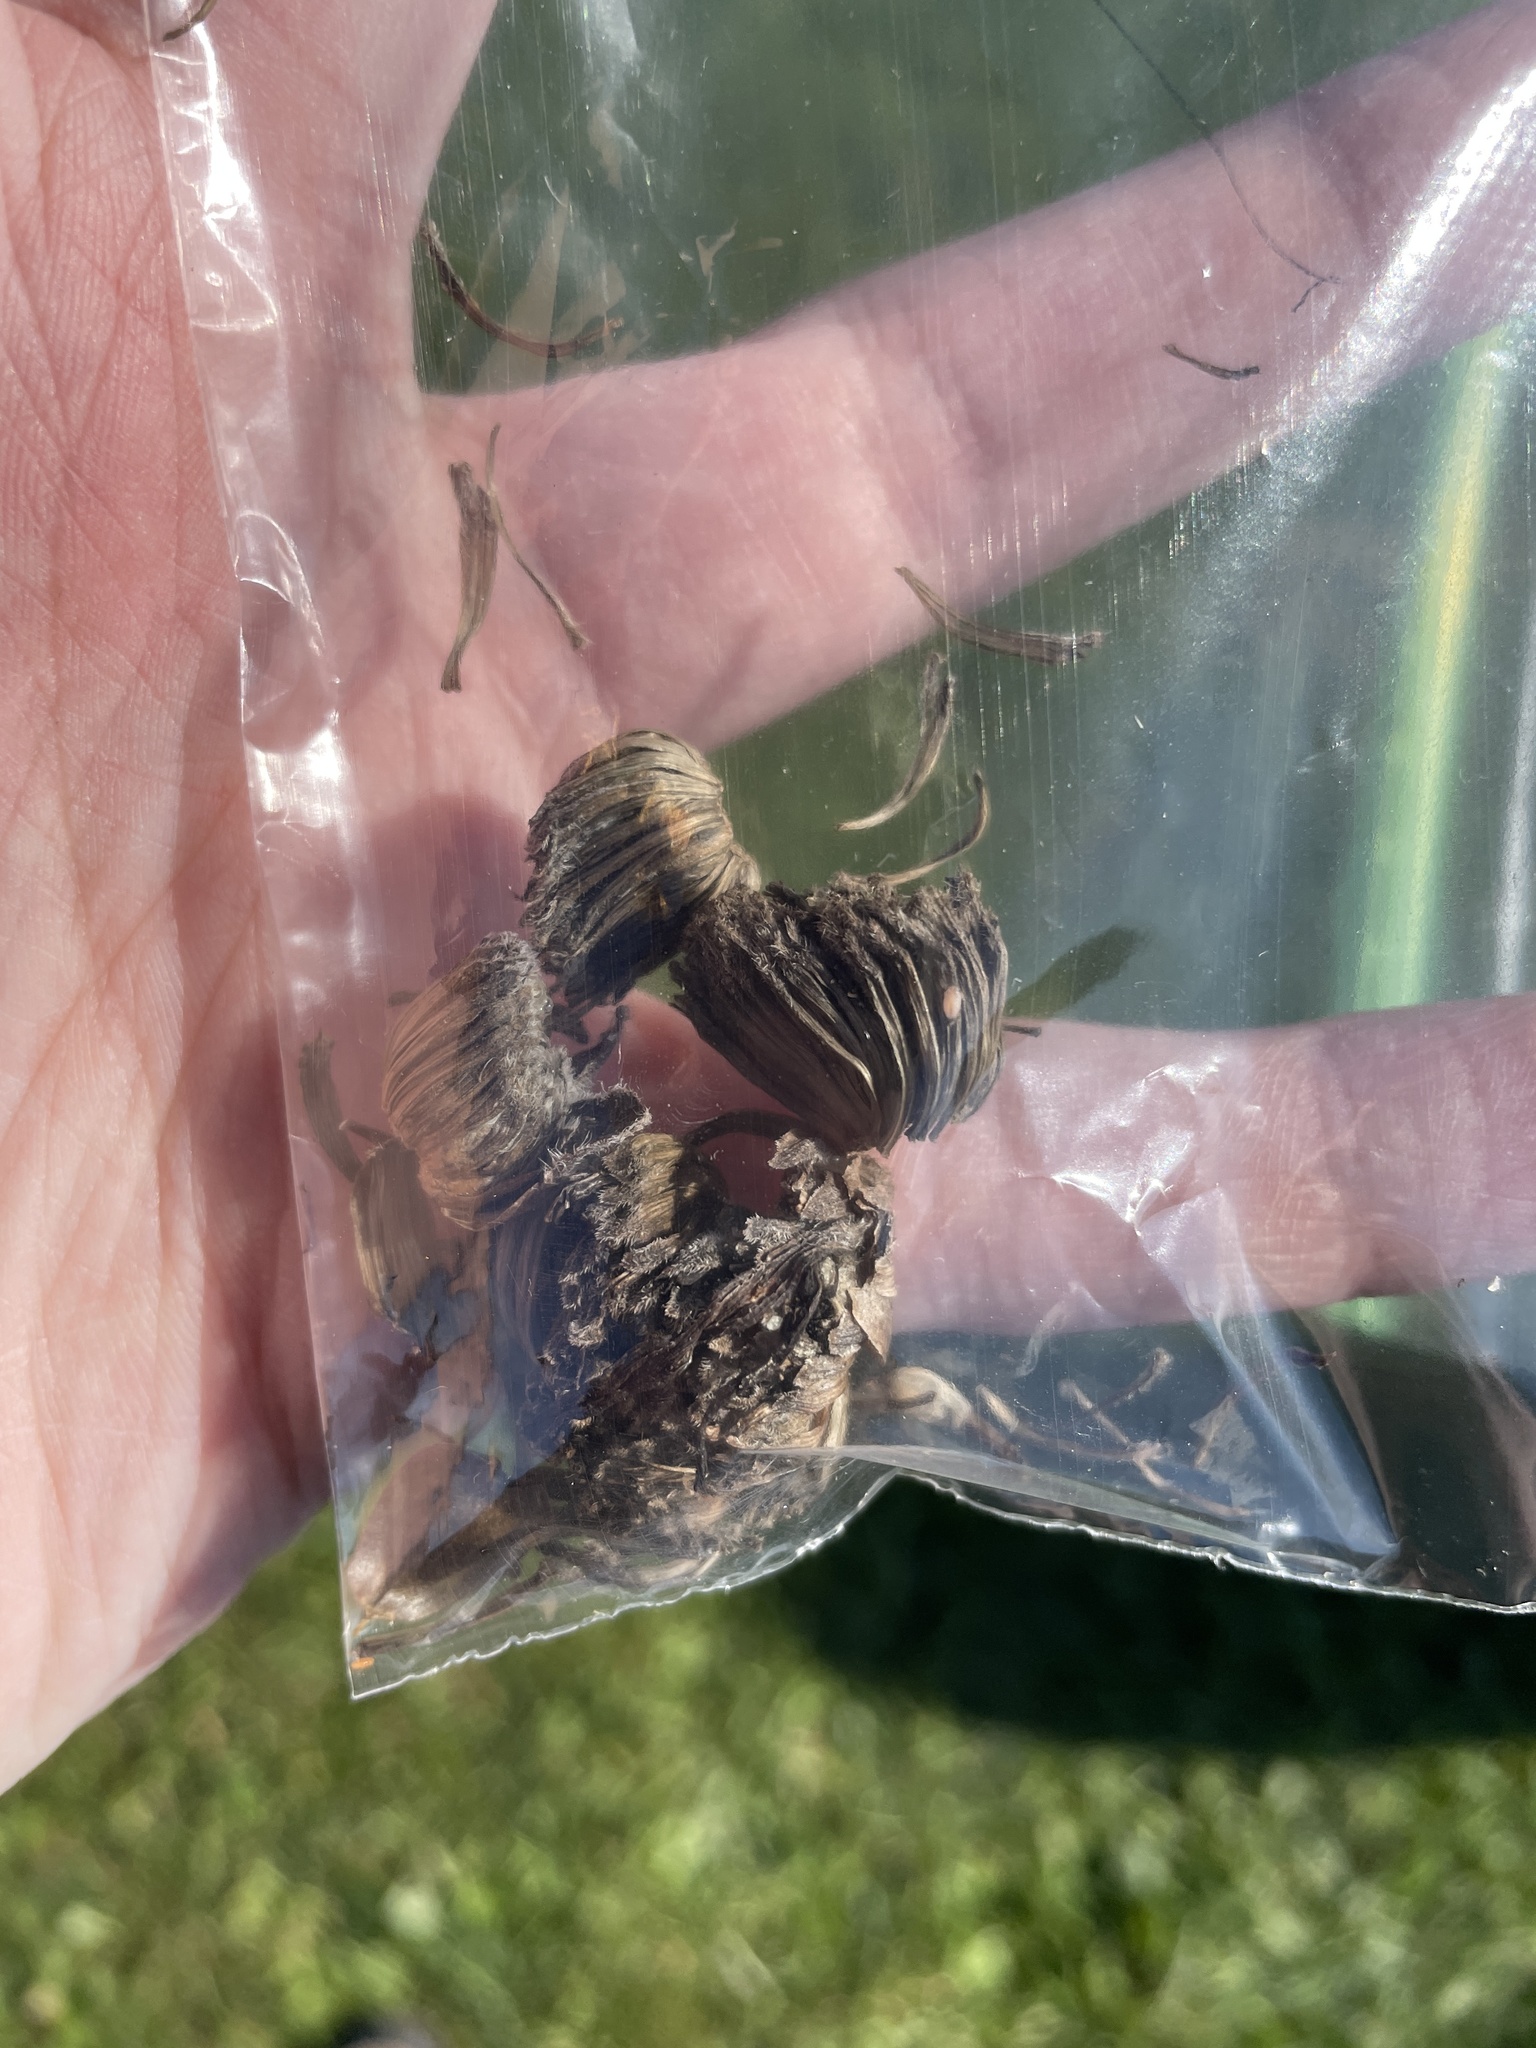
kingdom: Animalia
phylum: Arthropoda
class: Insecta
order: Hymenoptera
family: Cynipidae
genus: Antistrophus
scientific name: Antistrophus
